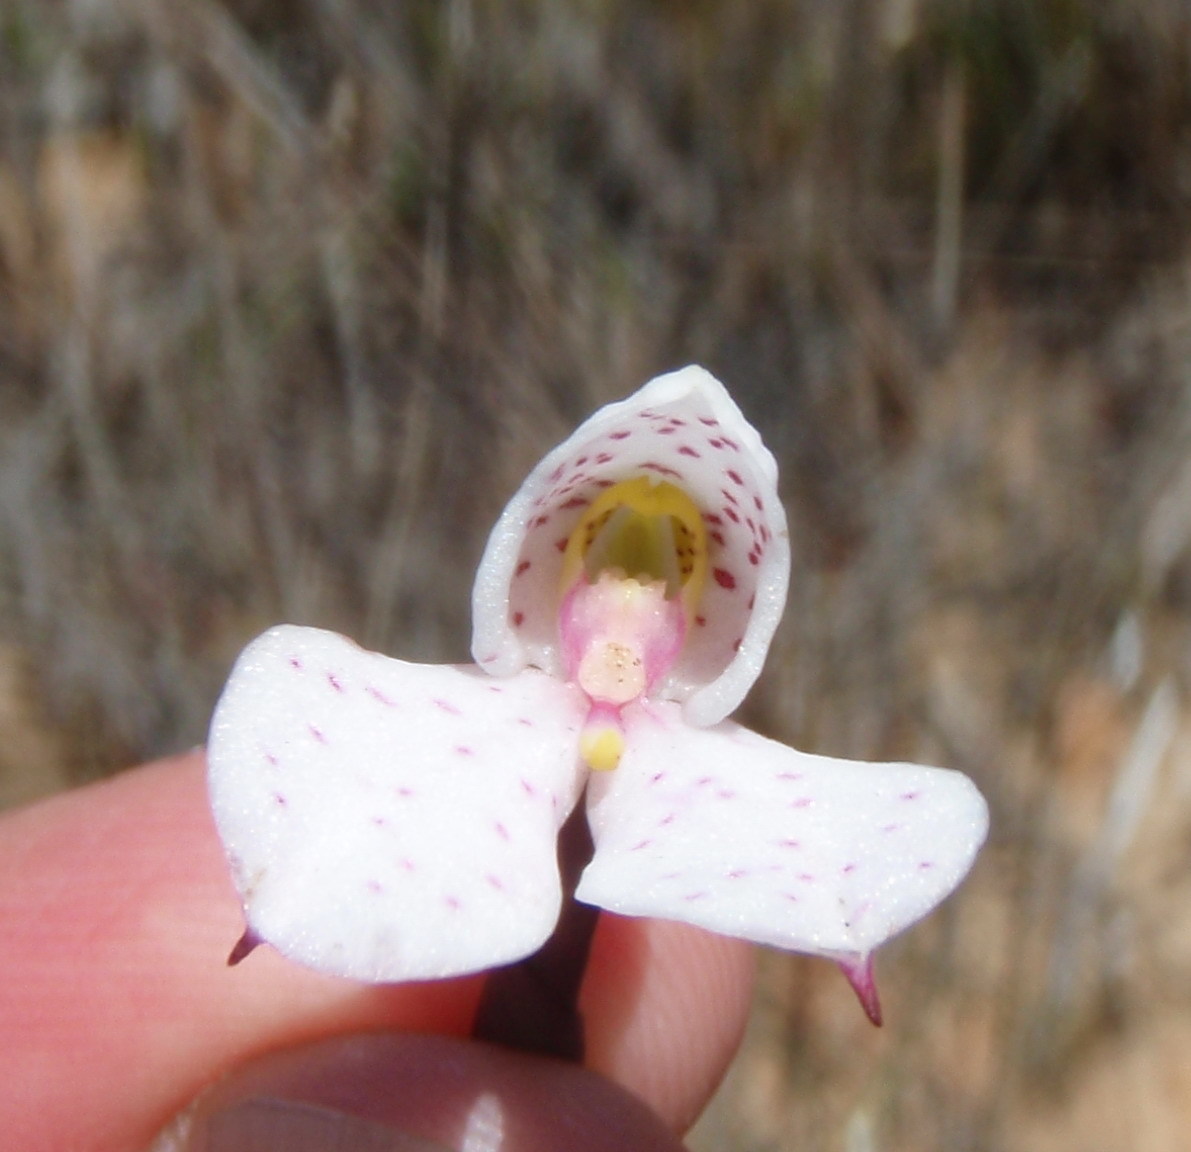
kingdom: Plantae
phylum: Tracheophyta
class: Liliopsida
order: Asparagales
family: Orchidaceae
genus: Disa
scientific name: Disa tripetaloides
